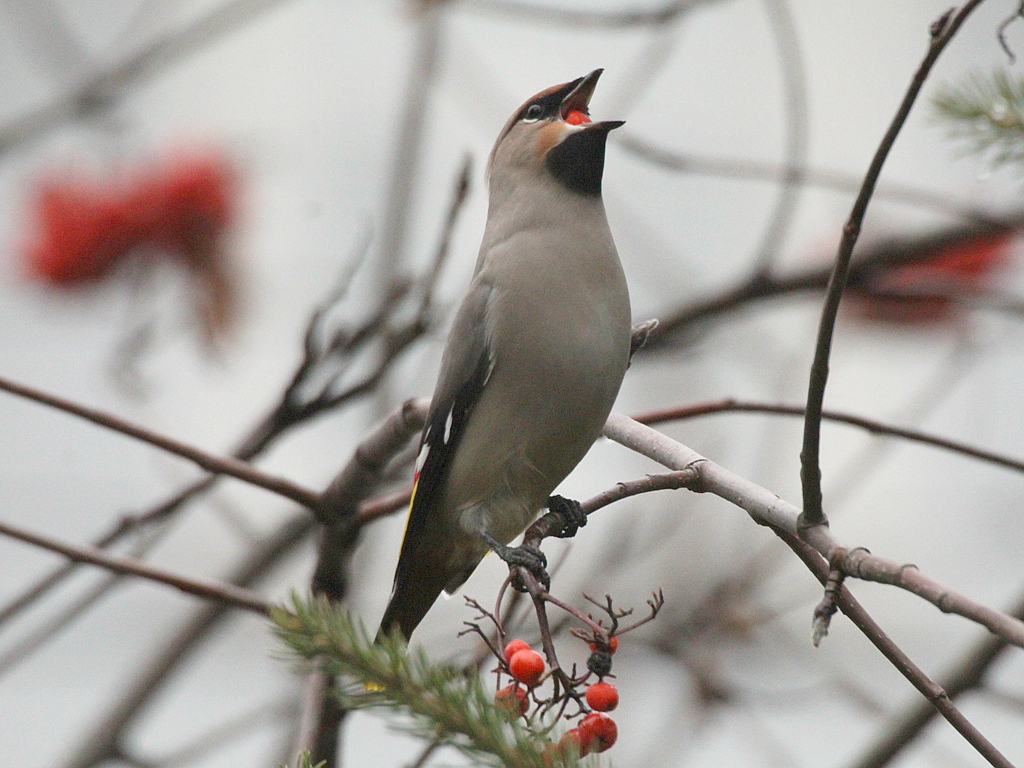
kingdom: Animalia
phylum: Chordata
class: Aves
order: Passeriformes
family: Bombycillidae
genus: Bombycilla
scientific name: Bombycilla garrulus
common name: Bohemian waxwing
